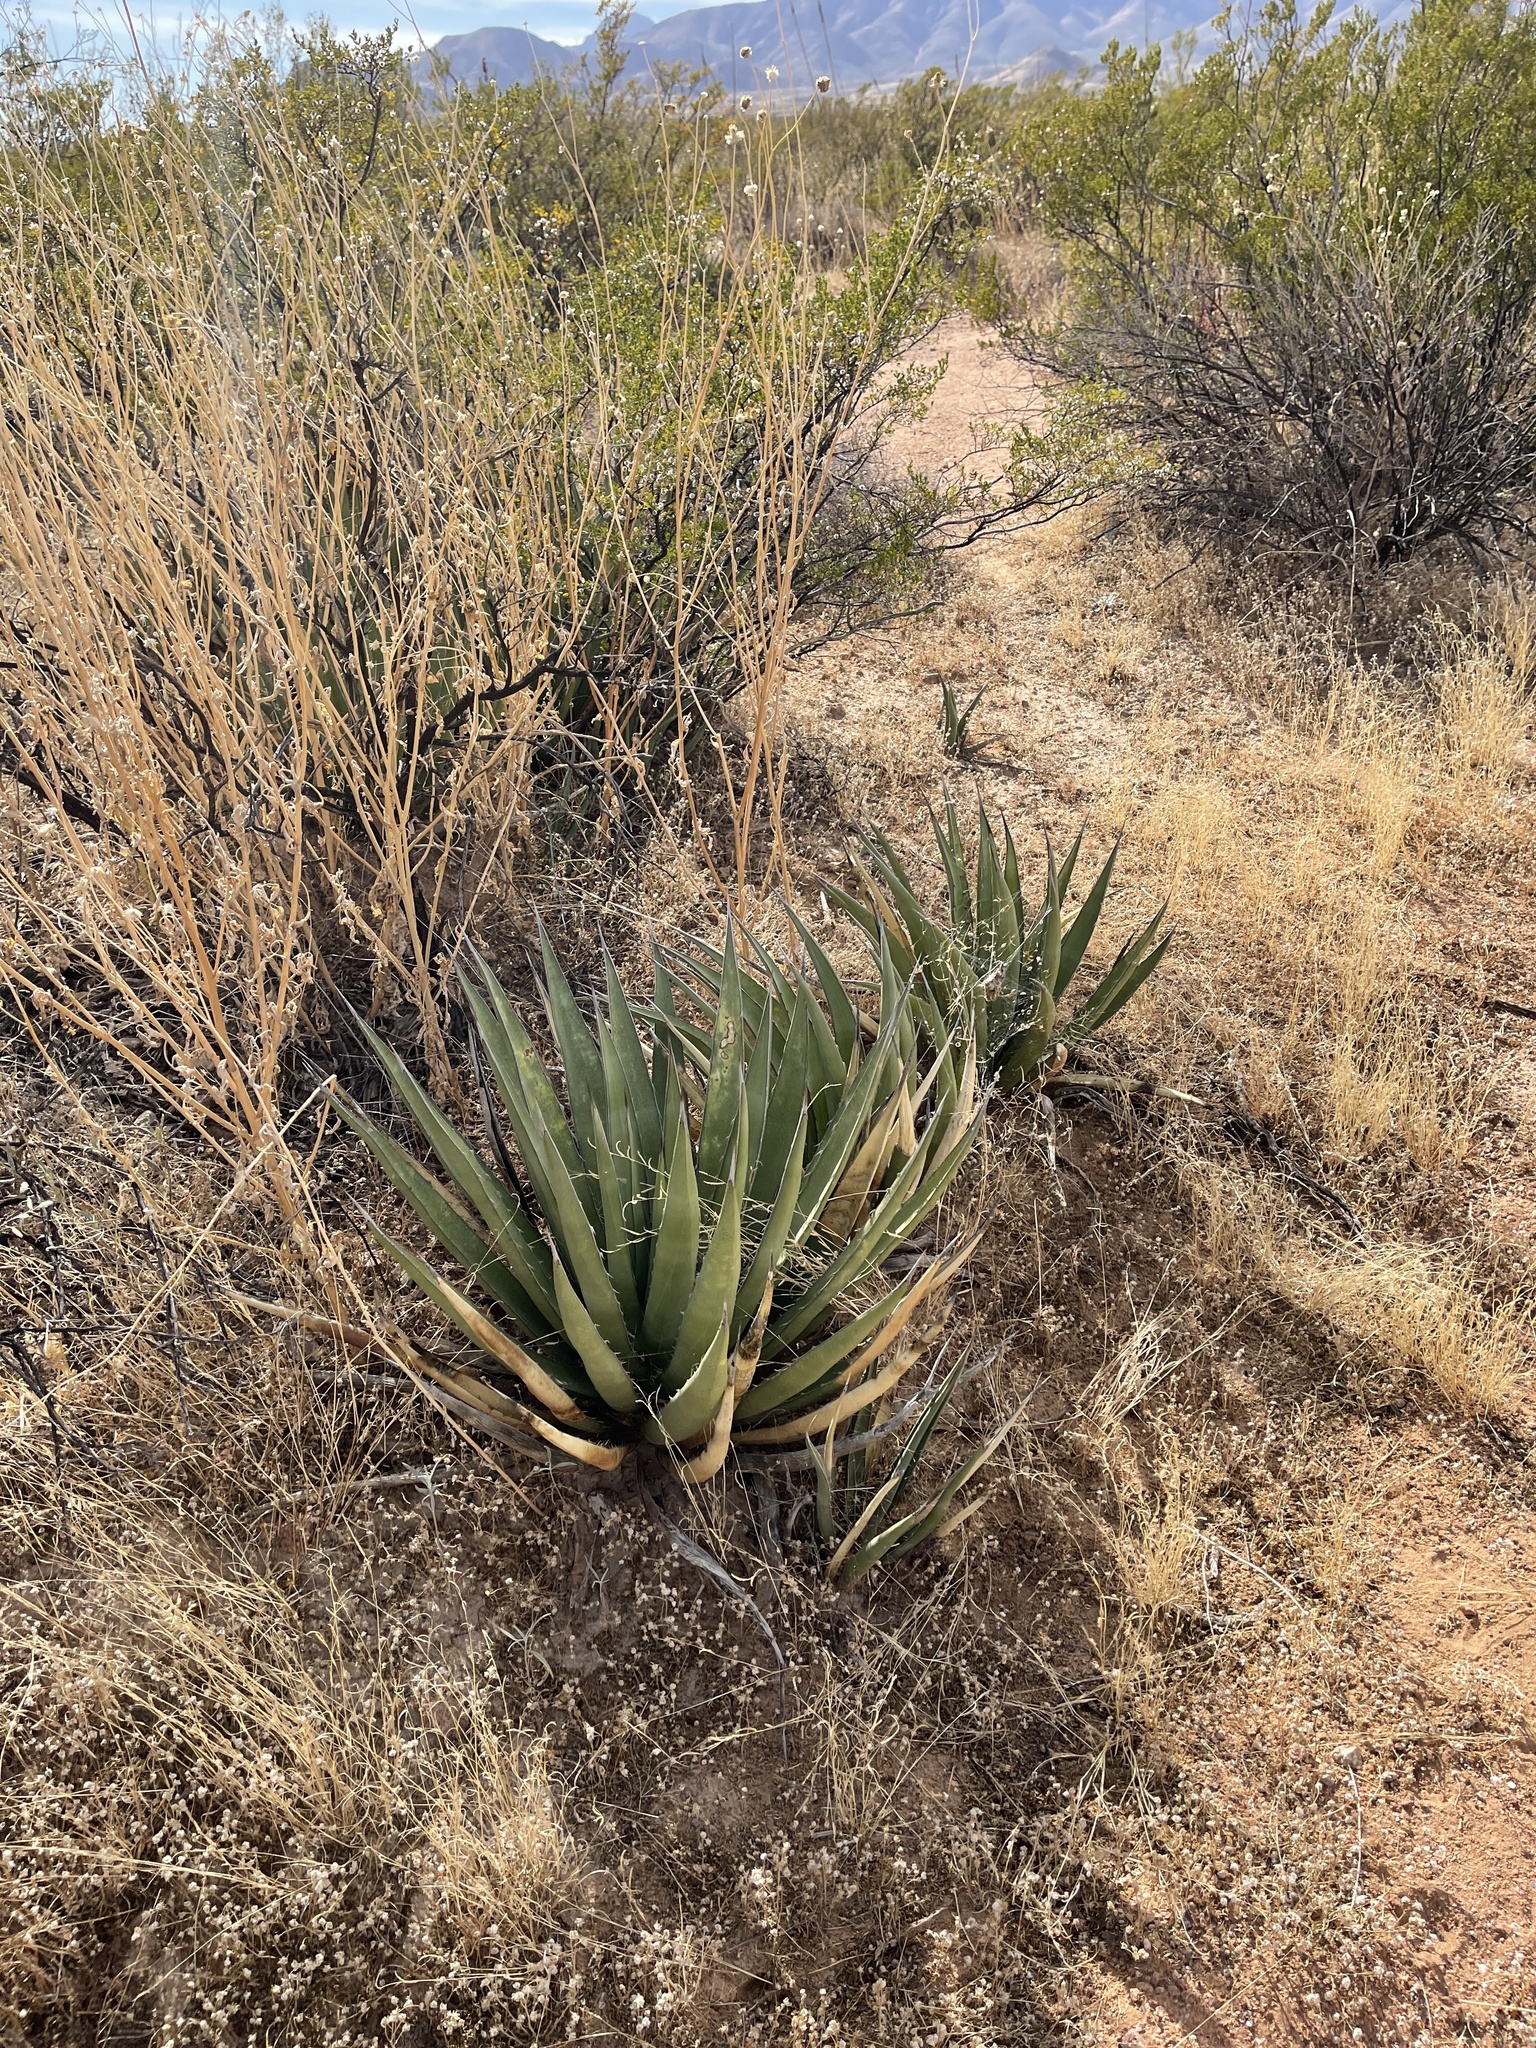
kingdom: Plantae
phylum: Tracheophyta
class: Liliopsida
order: Asparagales
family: Asparagaceae
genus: Agave
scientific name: Agave lechuguilla
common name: Lecheguilla agave
